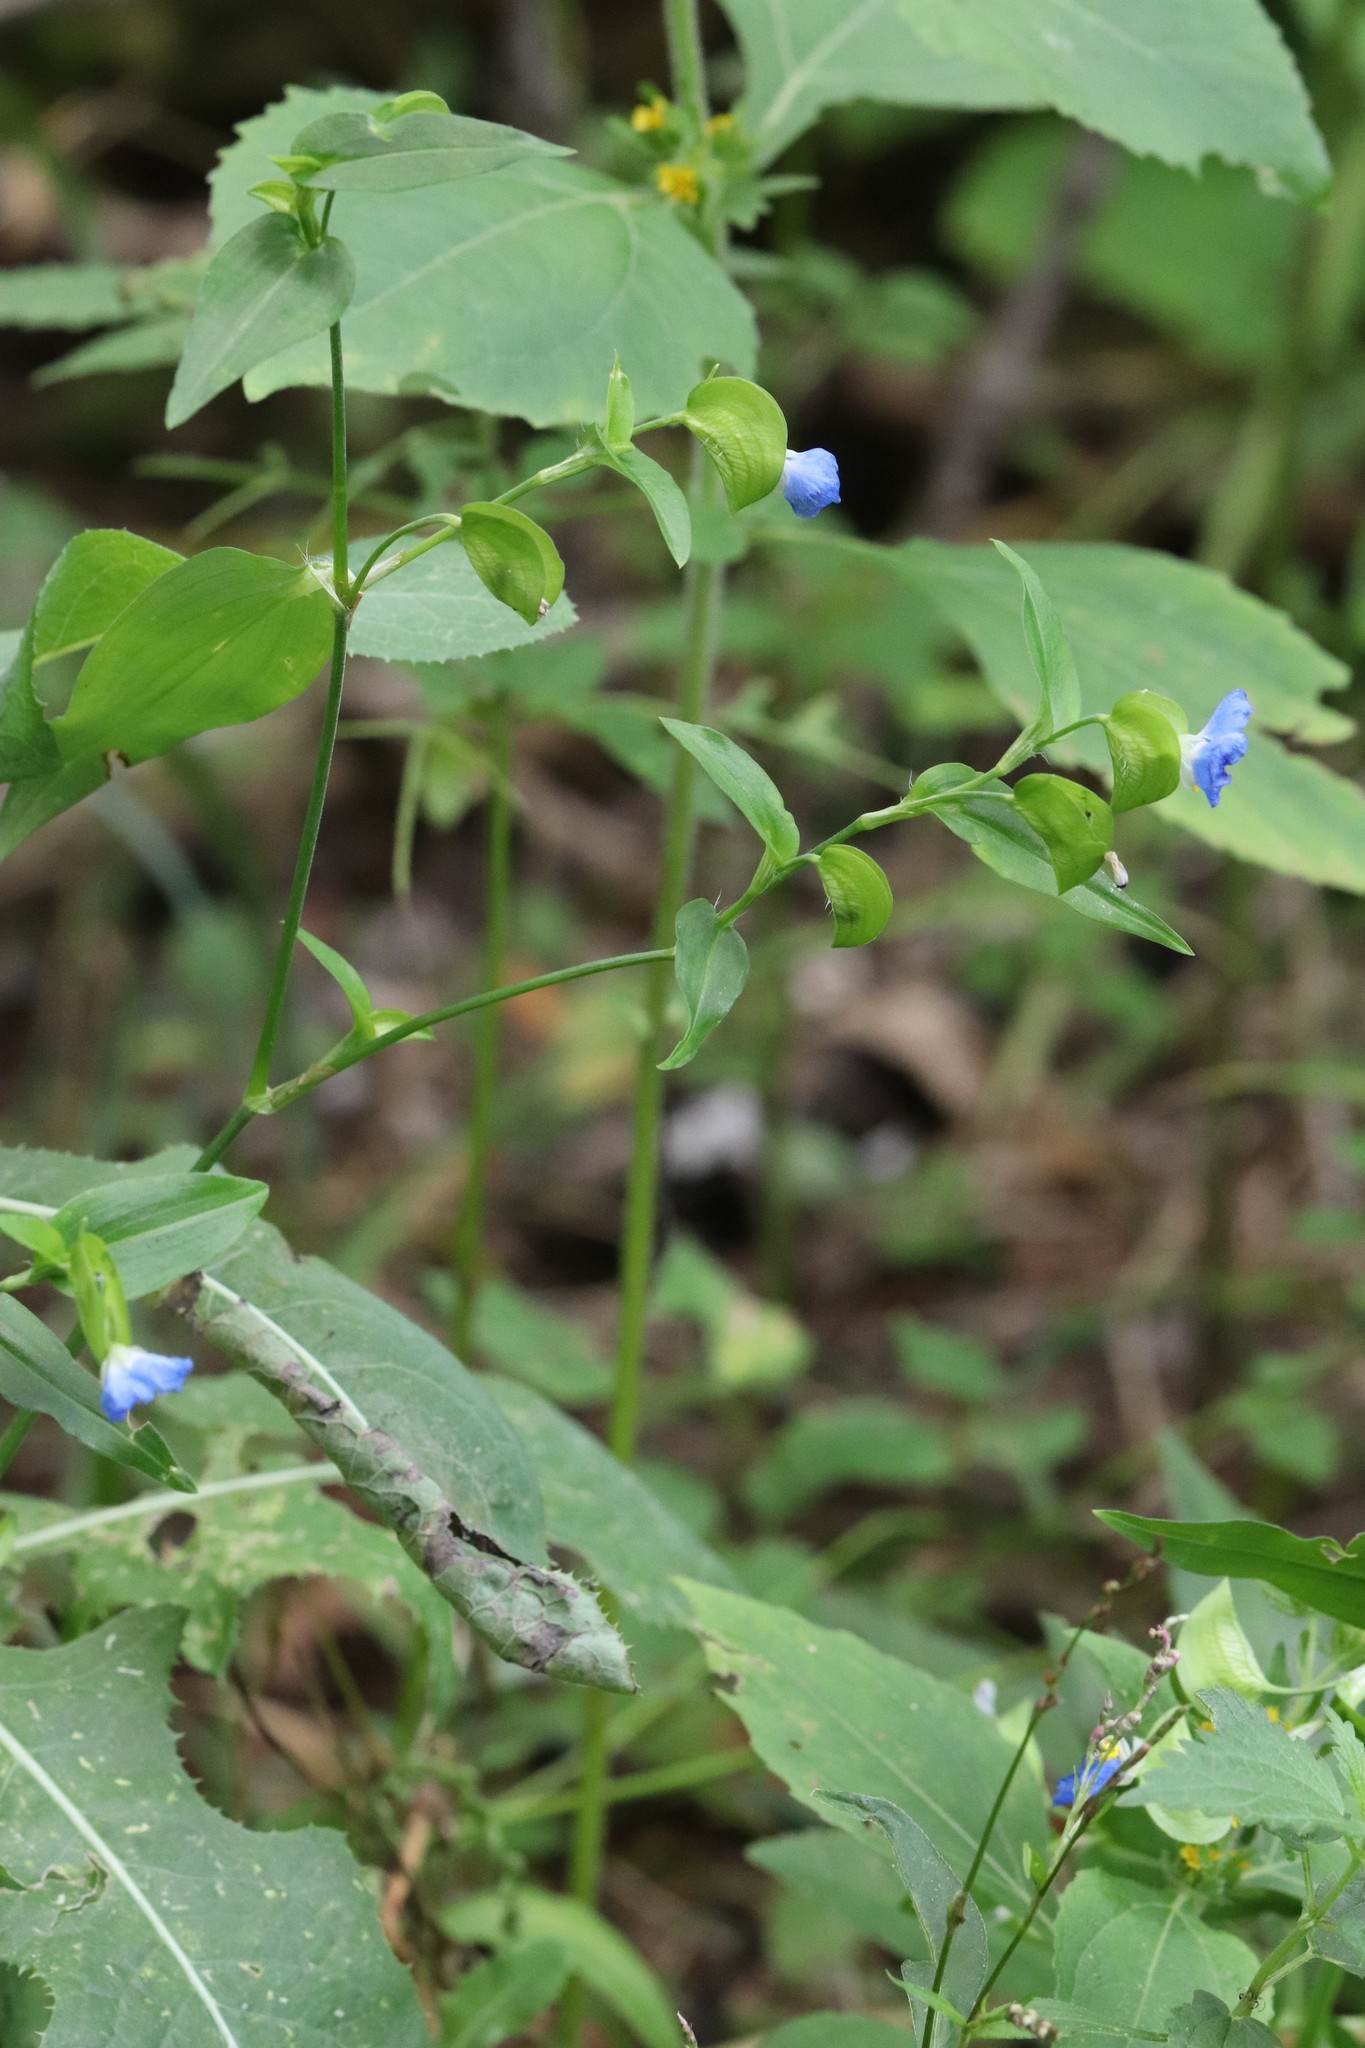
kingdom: Plantae
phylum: Tracheophyta
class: Liliopsida
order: Commelinales
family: Commelinaceae
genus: Commelina
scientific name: Commelina communis
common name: Asiatic dayflower
